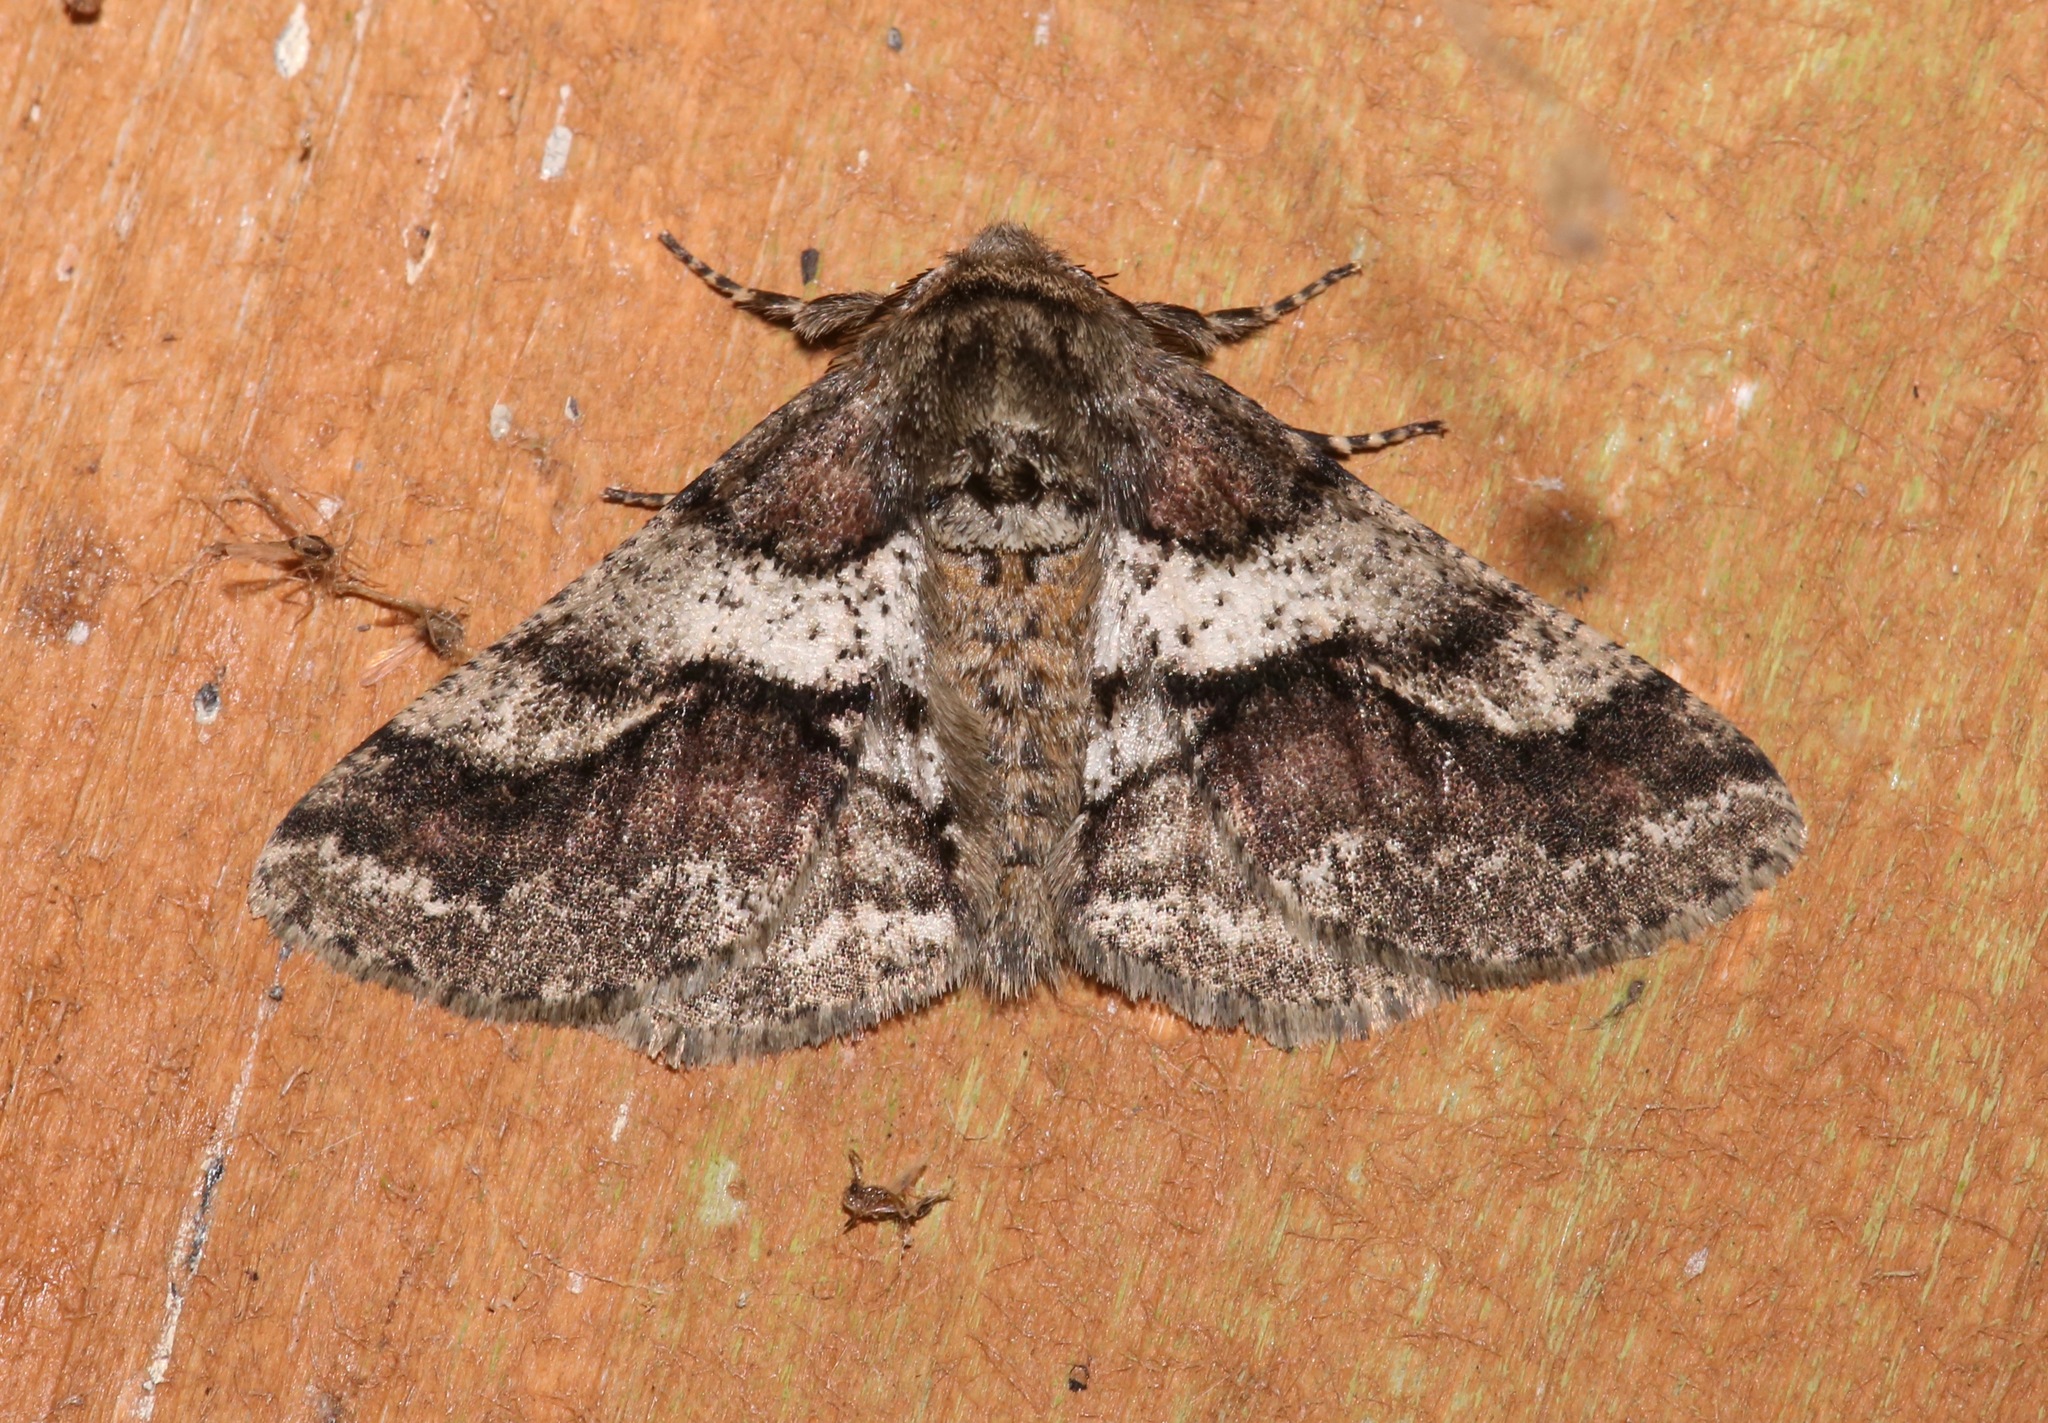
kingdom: Animalia
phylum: Arthropoda
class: Insecta
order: Lepidoptera
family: Geometridae
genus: Lycia
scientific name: Lycia ypsilon
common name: Wooly gray
